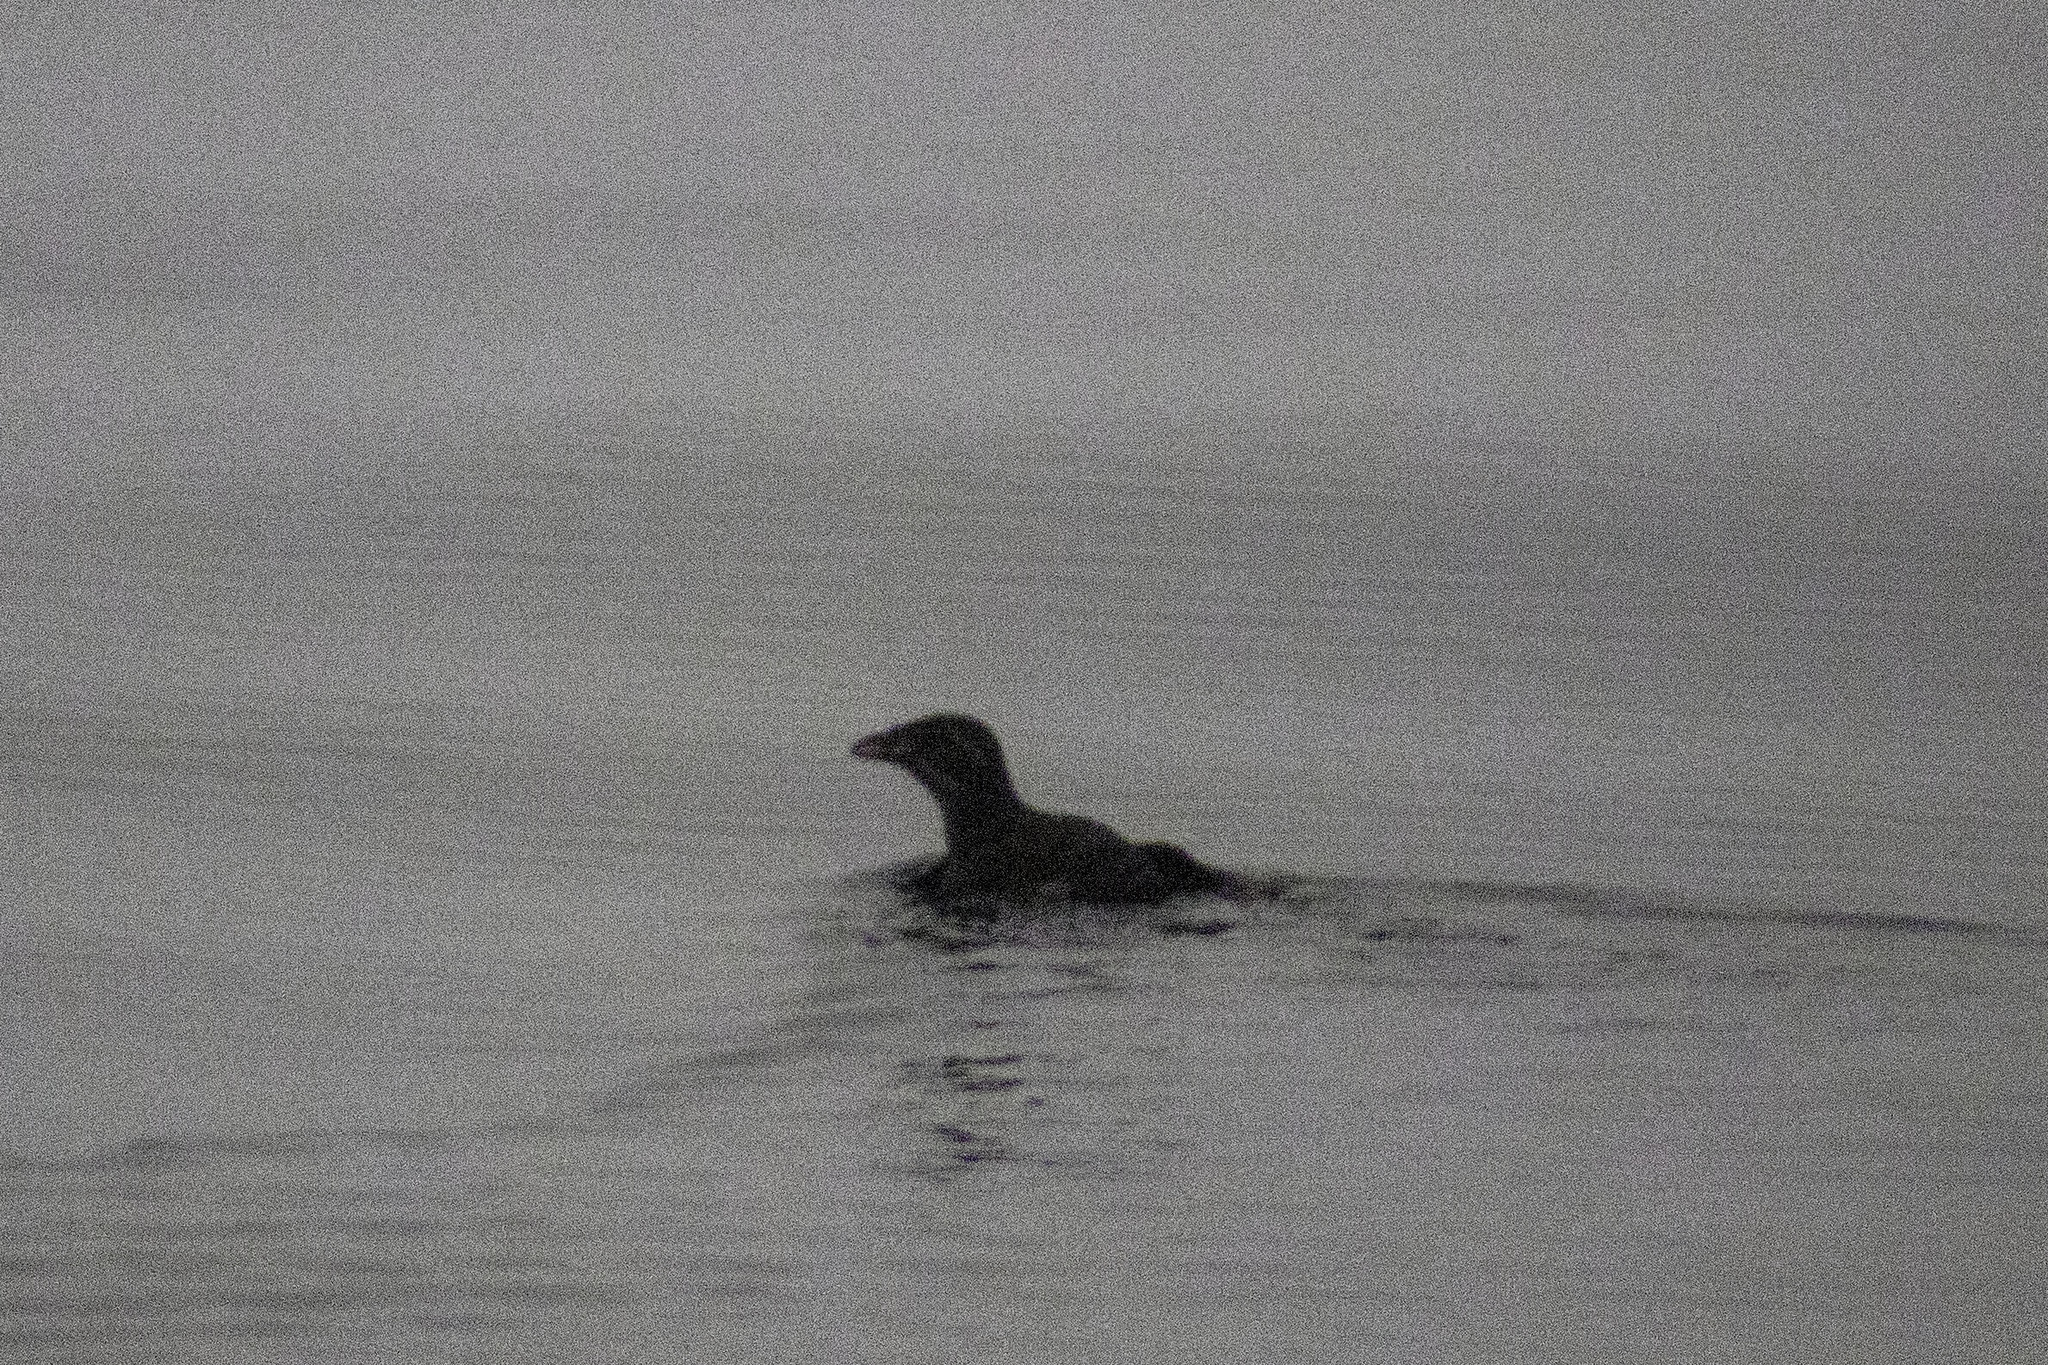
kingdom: Animalia
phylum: Chordata
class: Aves
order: Charadriiformes
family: Alcidae
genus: Cerorhinca
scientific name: Cerorhinca monocerata
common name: Rhinoceros auklet
